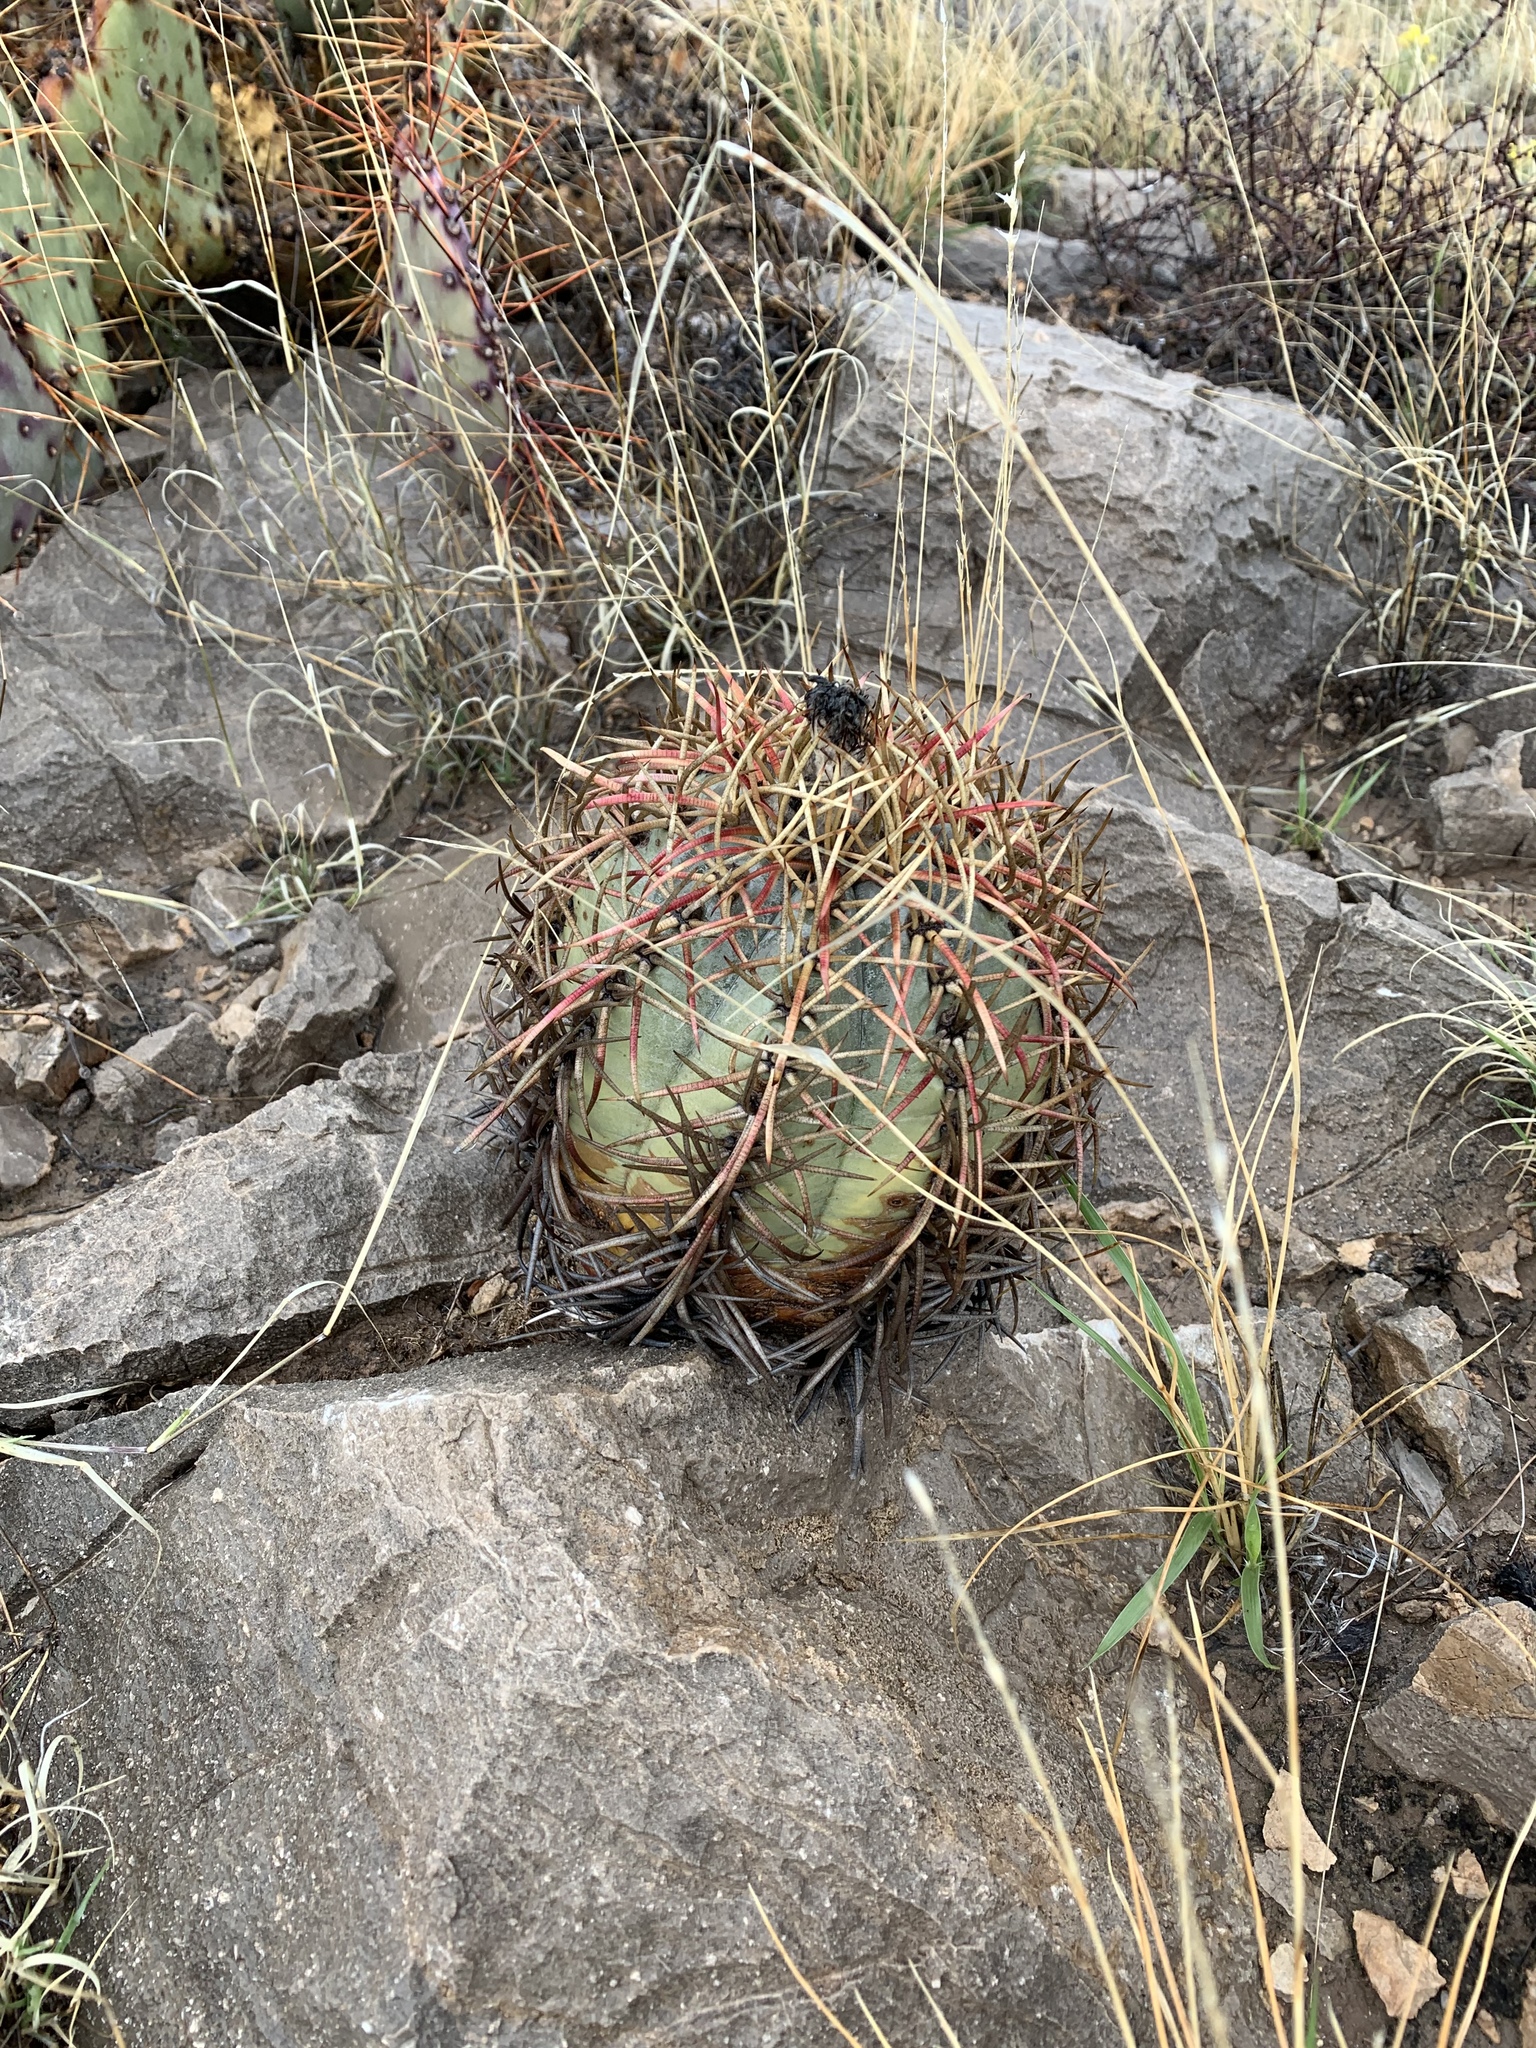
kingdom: Plantae
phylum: Tracheophyta
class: Magnoliopsida
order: Caryophyllales
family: Cactaceae
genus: Echinocactus
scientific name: Echinocactus horizonthalonius
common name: Devilshead
